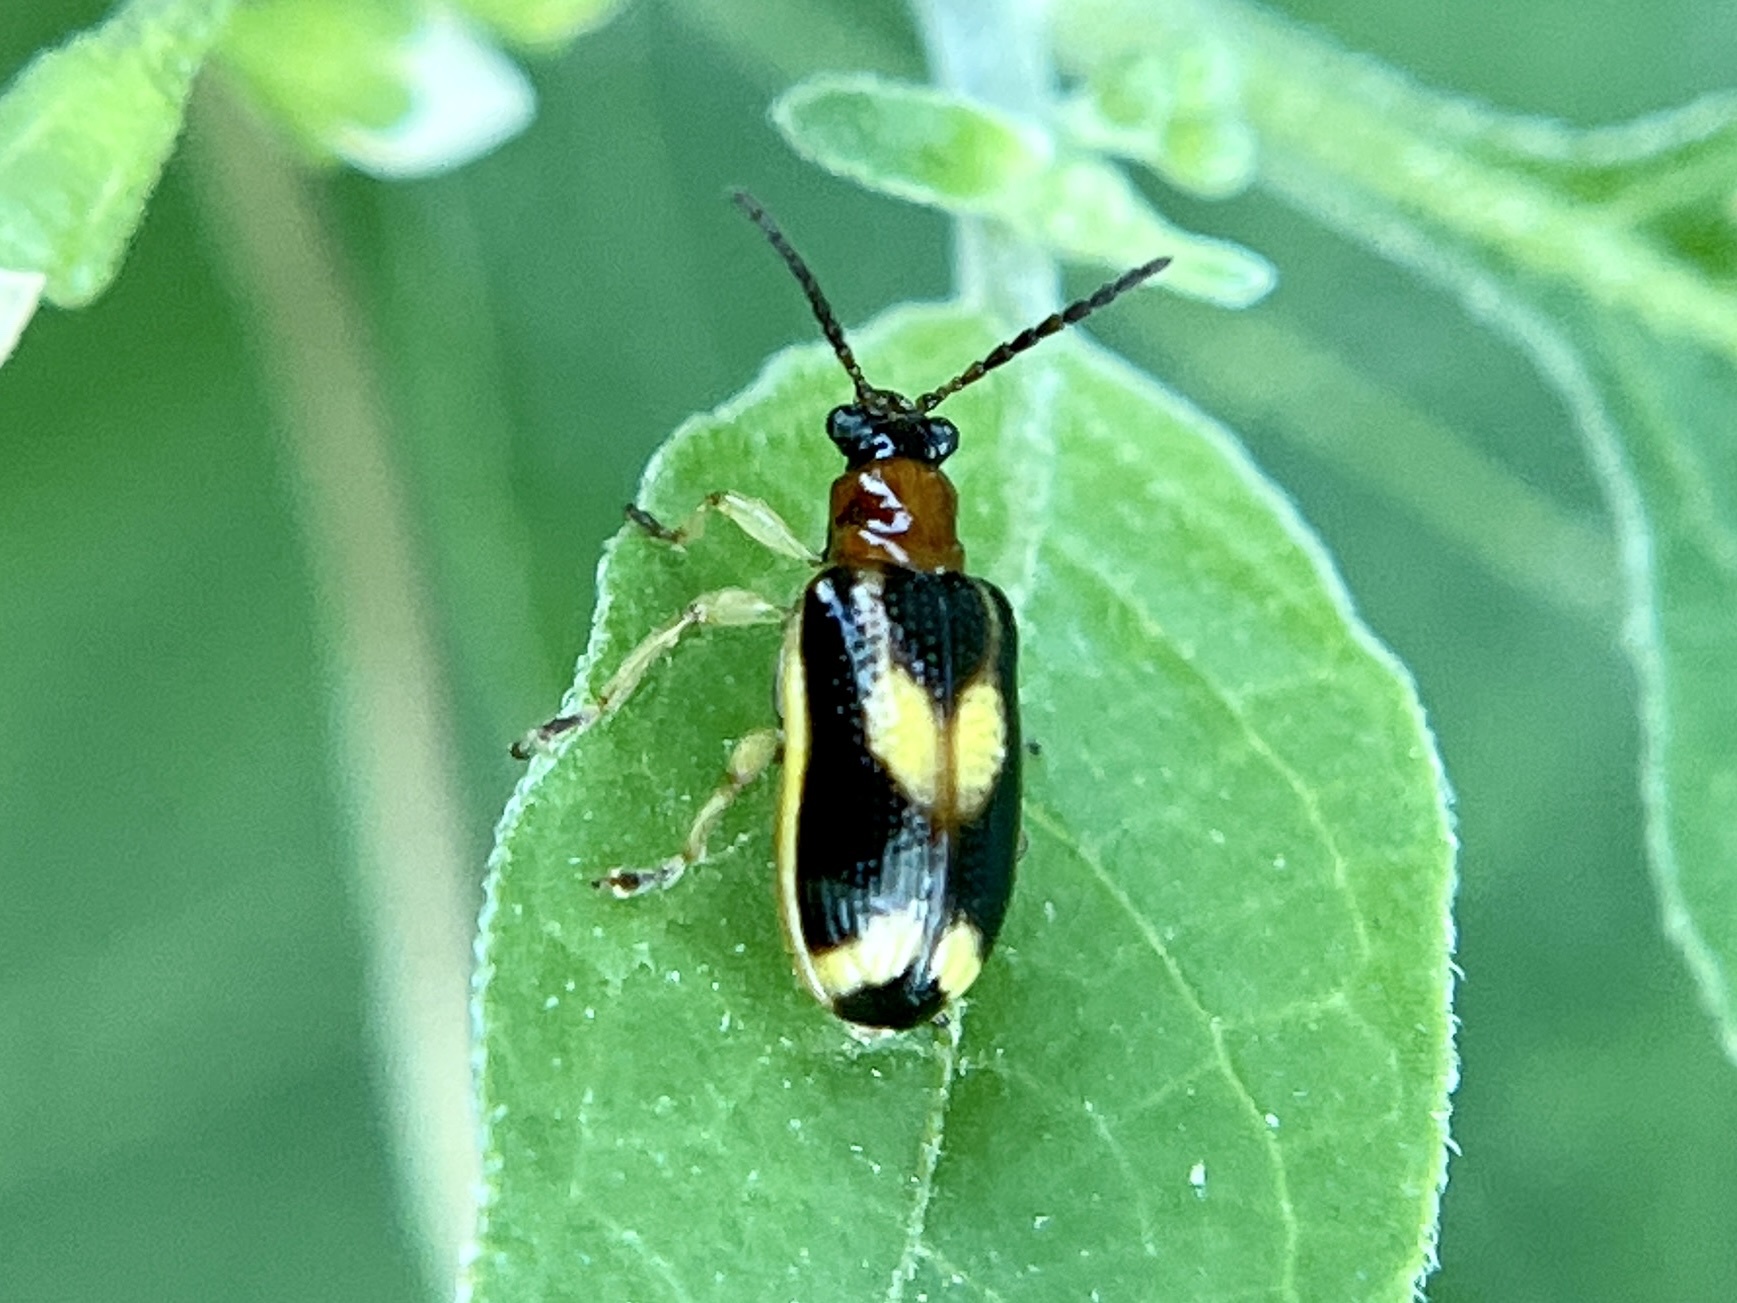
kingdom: Animalia
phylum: Arthropoda
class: Insecta
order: Coleoptera
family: Chrysomelidae
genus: Lema
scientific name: Lema opulenta
